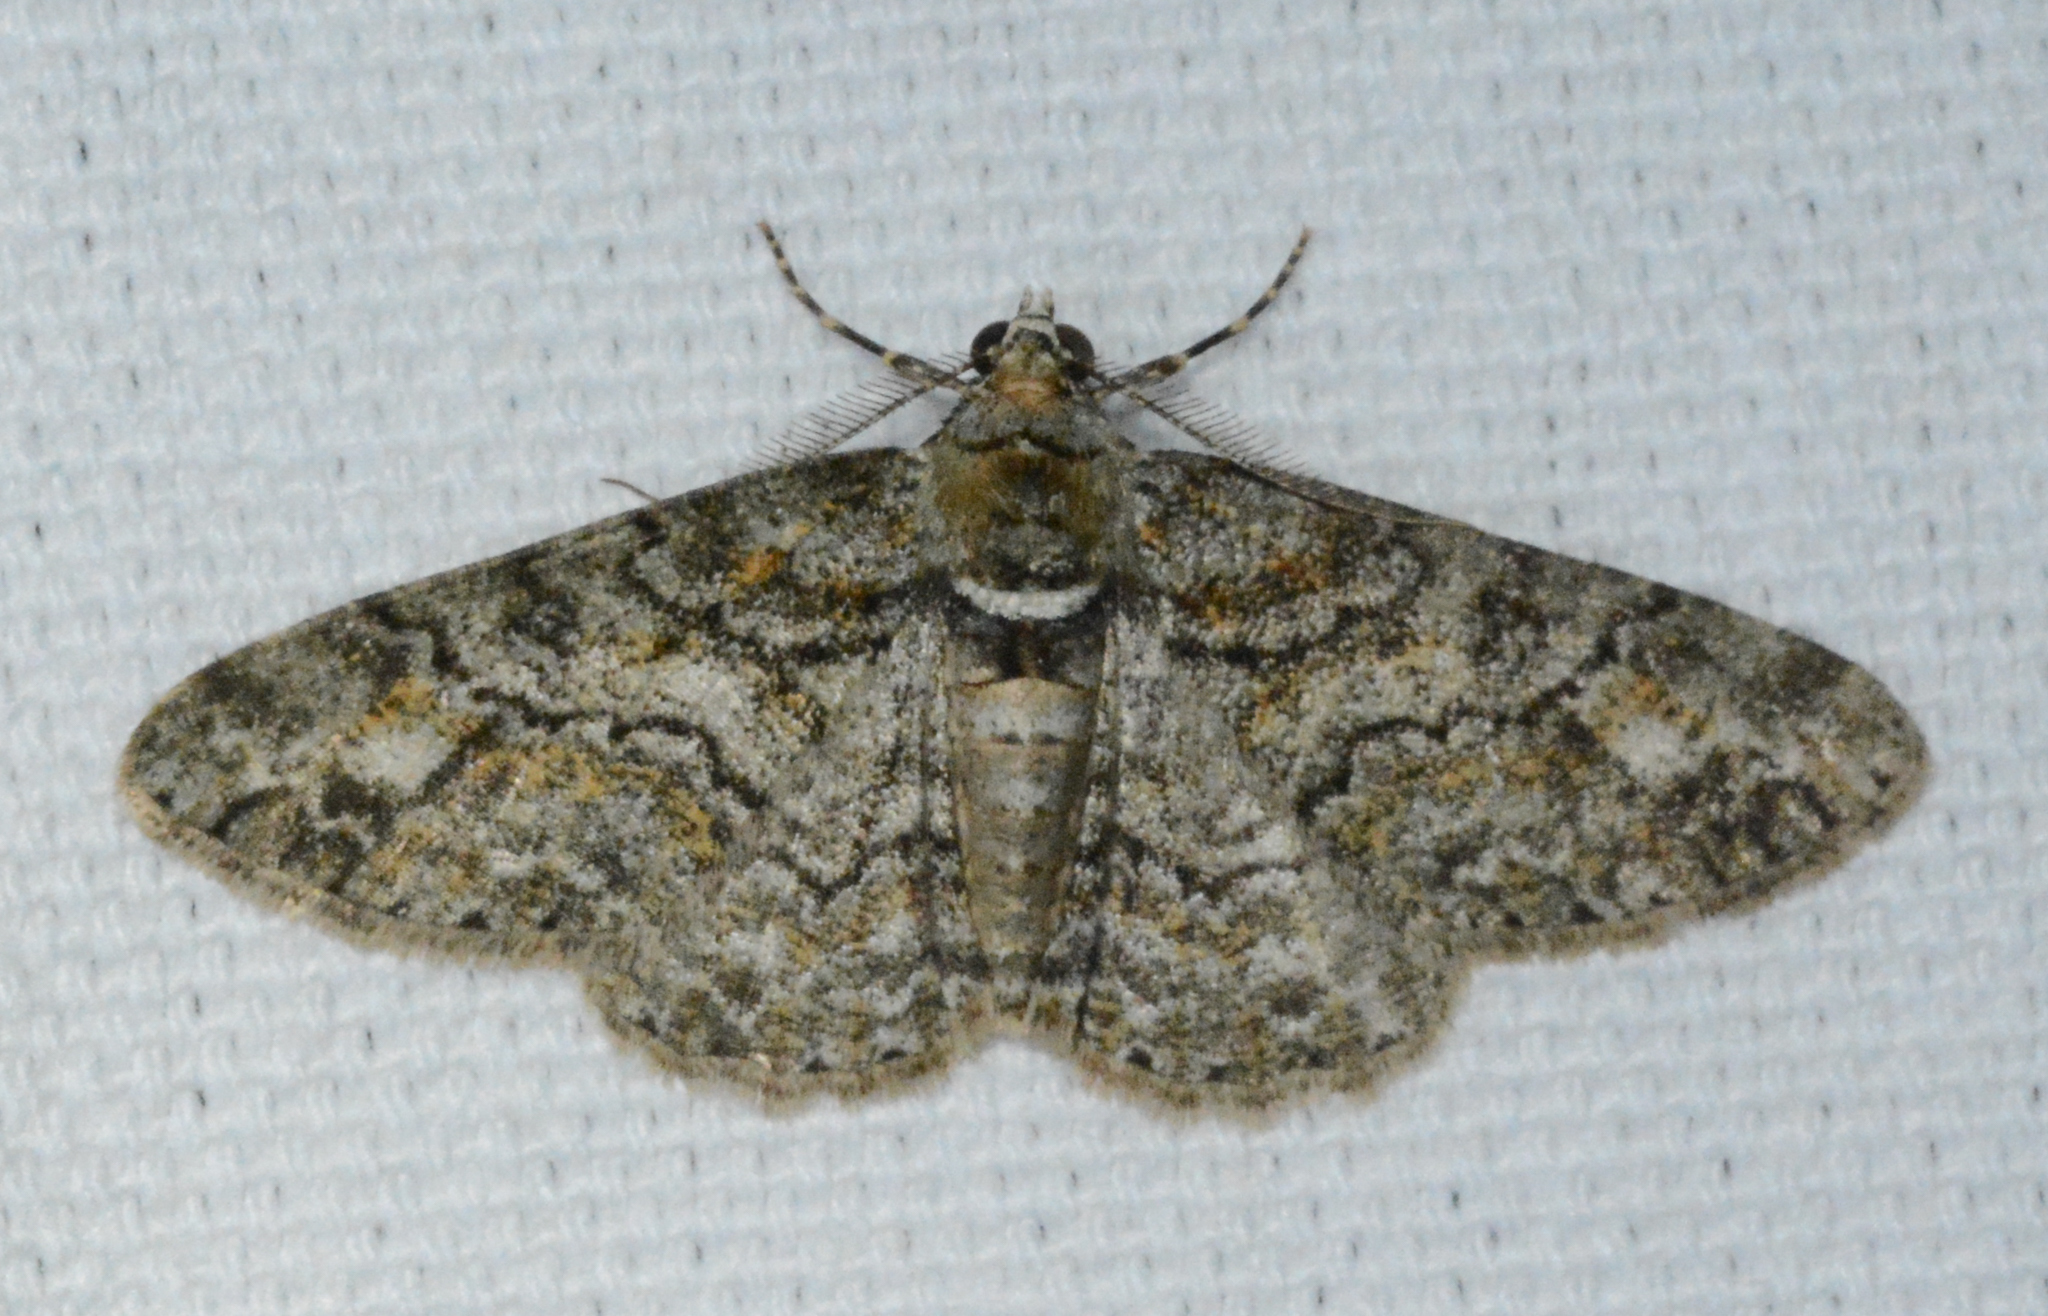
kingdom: Animalia
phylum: Arthropoda
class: Insecta
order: Lepidoptera
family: Geometridae
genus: Cleora
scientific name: Cleora sublunaria
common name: Double-lined gray
